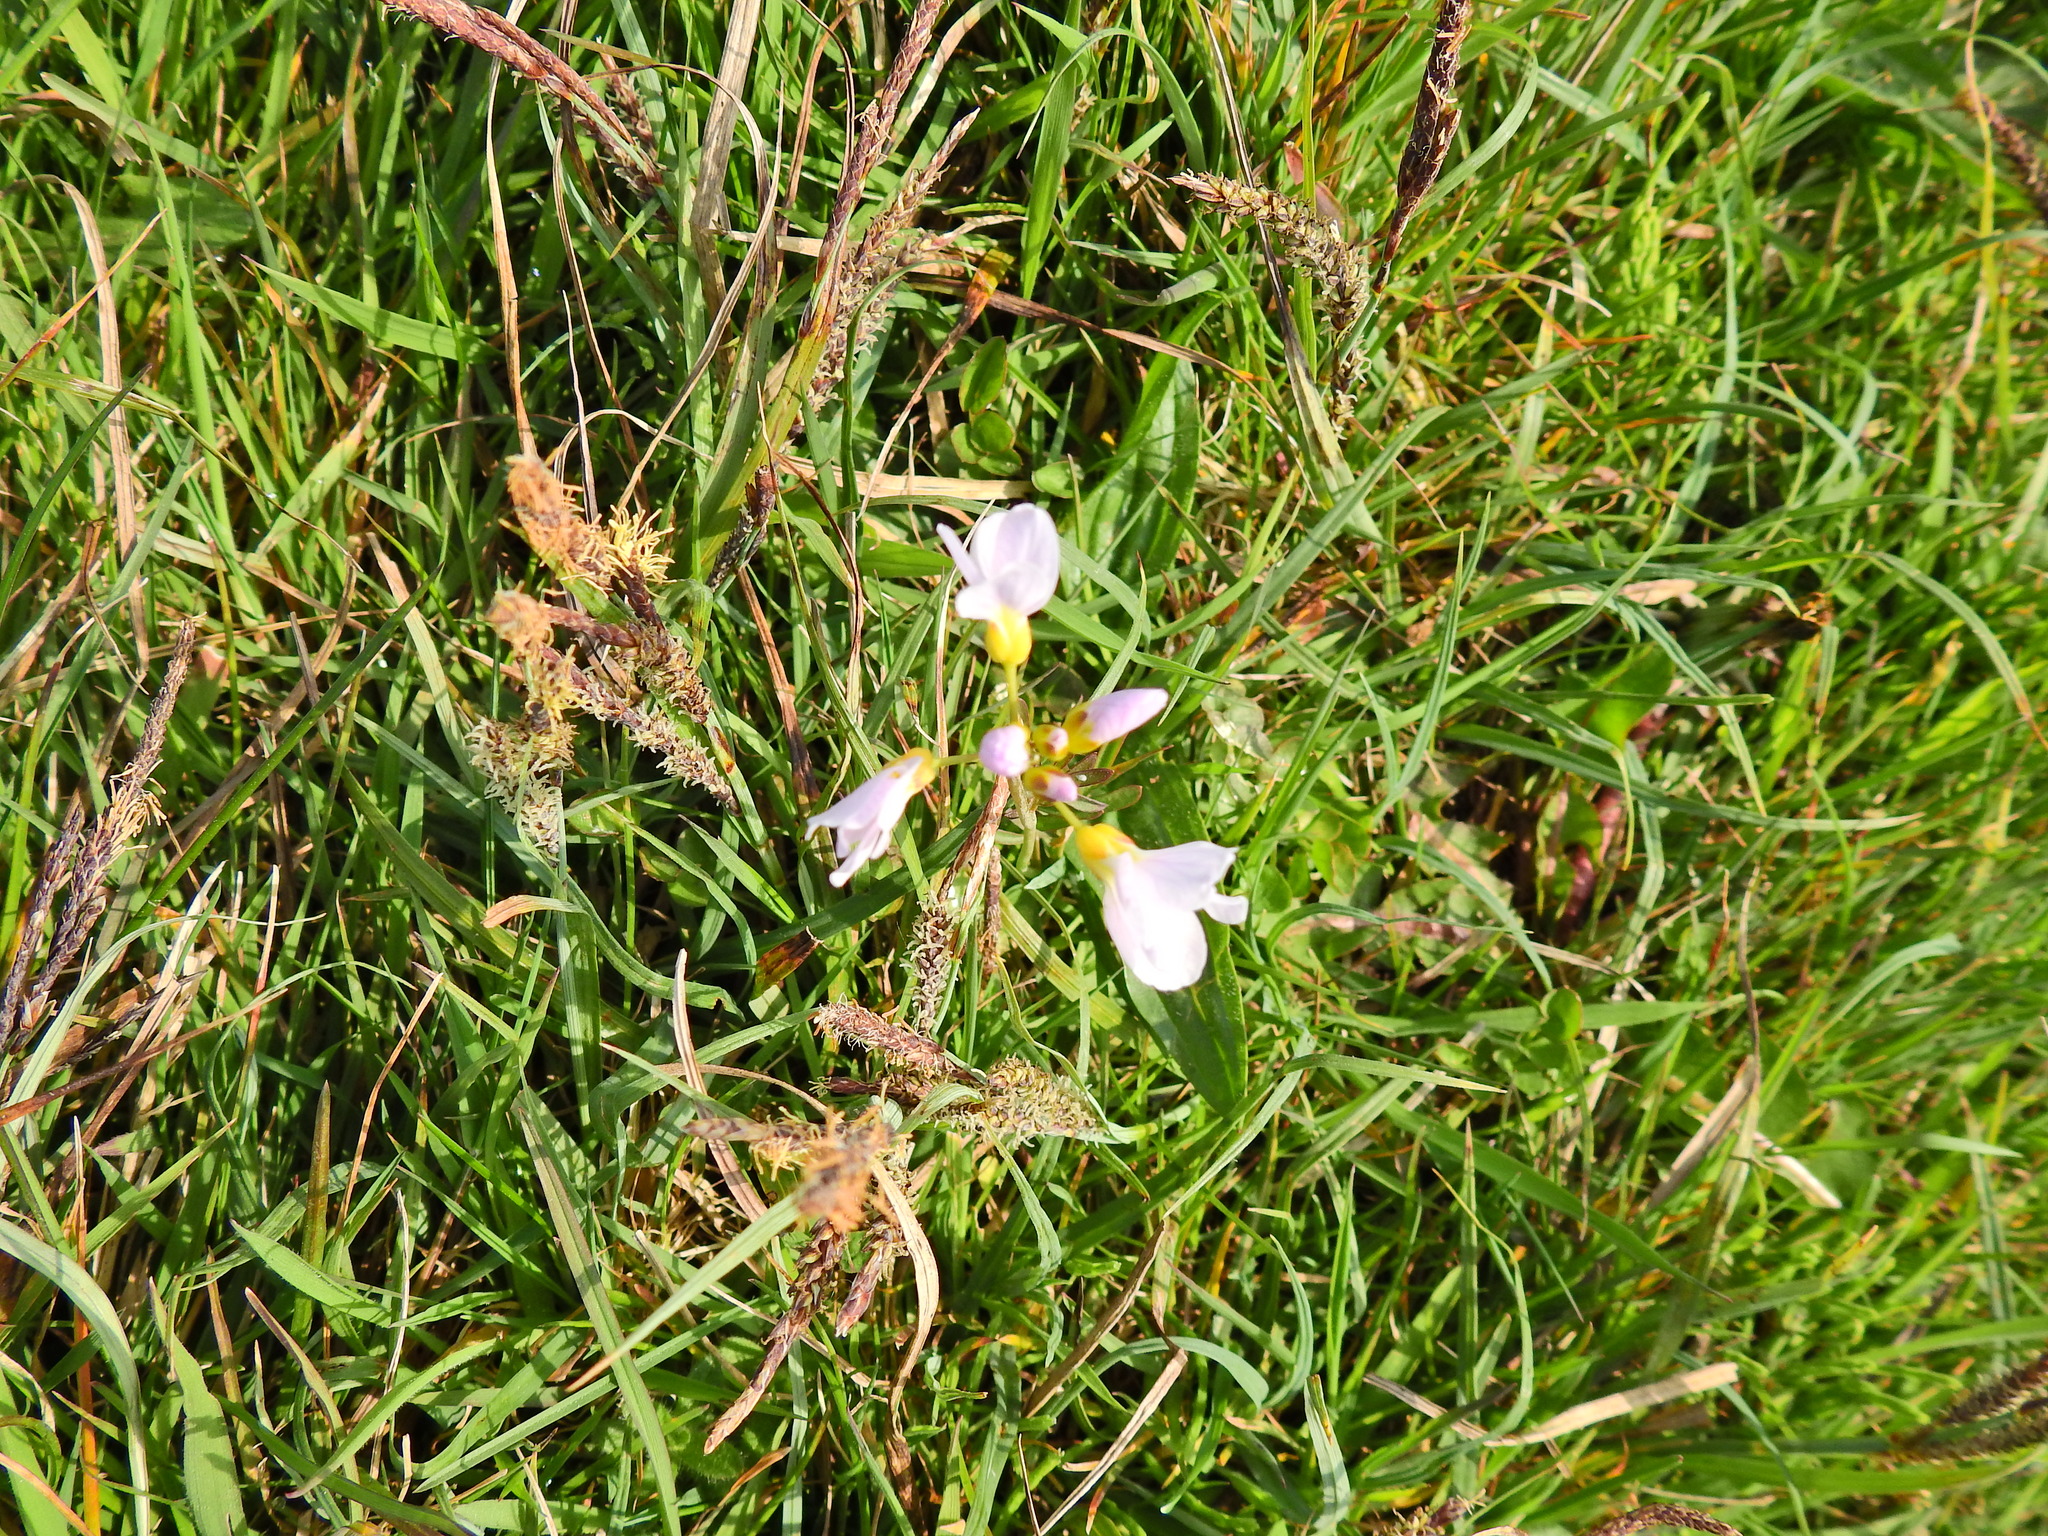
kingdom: Plantae
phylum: Tracheophyta
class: Magnoliopsida
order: Brassicales
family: Brassicaceae
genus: Cardamine
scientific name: Cardamine pratensis
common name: Cuckoo flower
